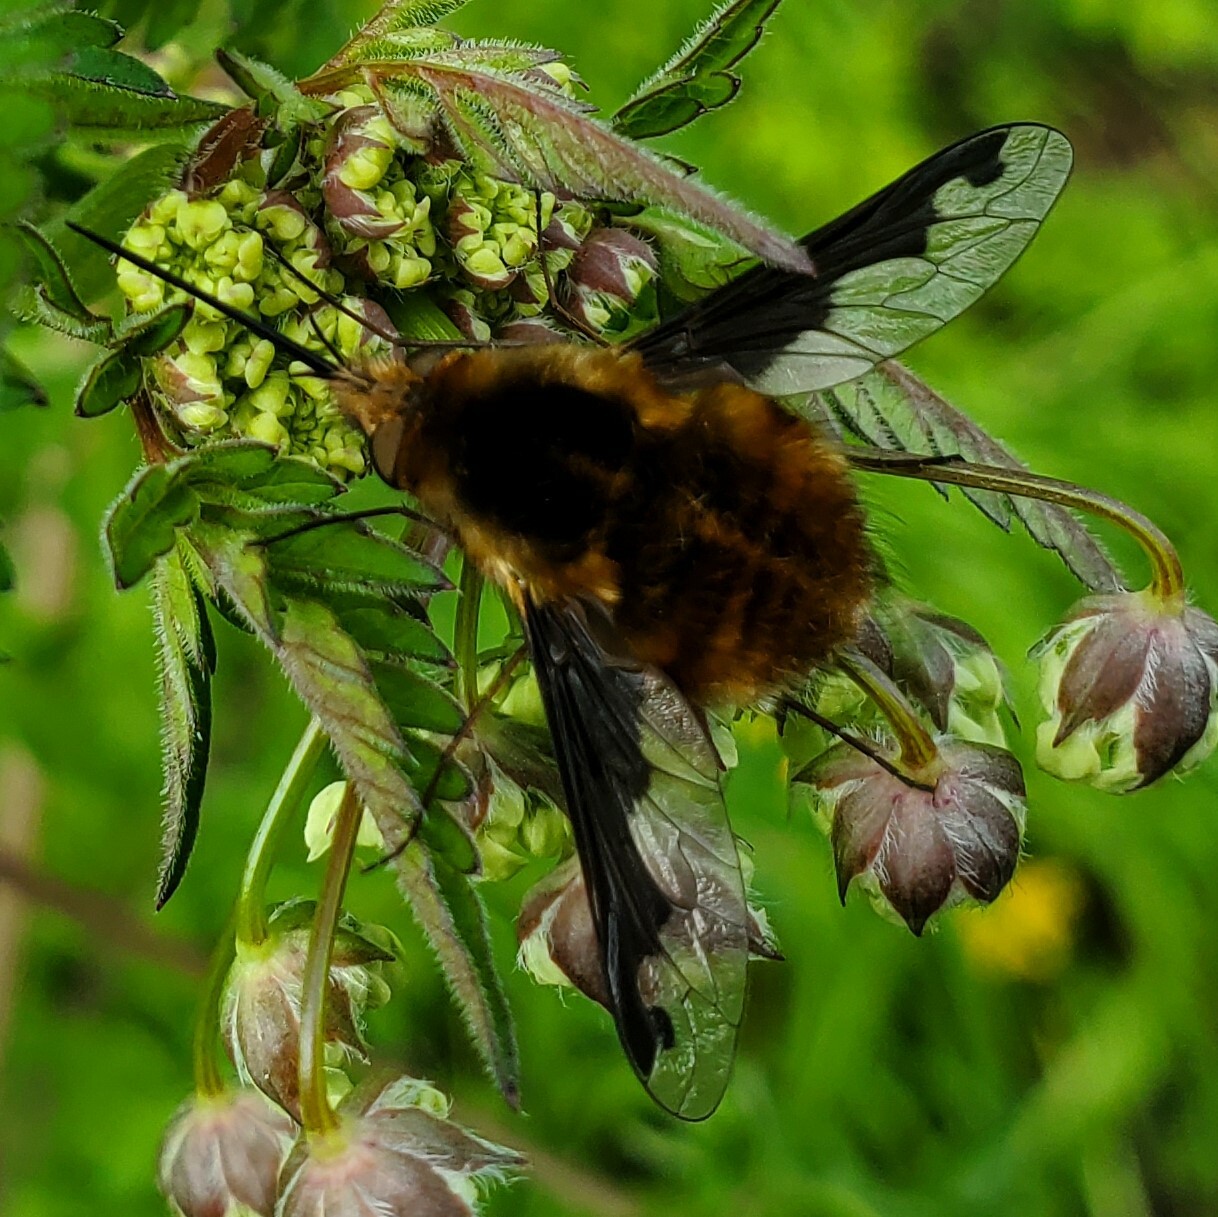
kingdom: Animalia
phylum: Arthropoda
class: Insecta
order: Diptera
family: Bombyliidae
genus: Bombylius
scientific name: Bombylius major
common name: Bee fly
